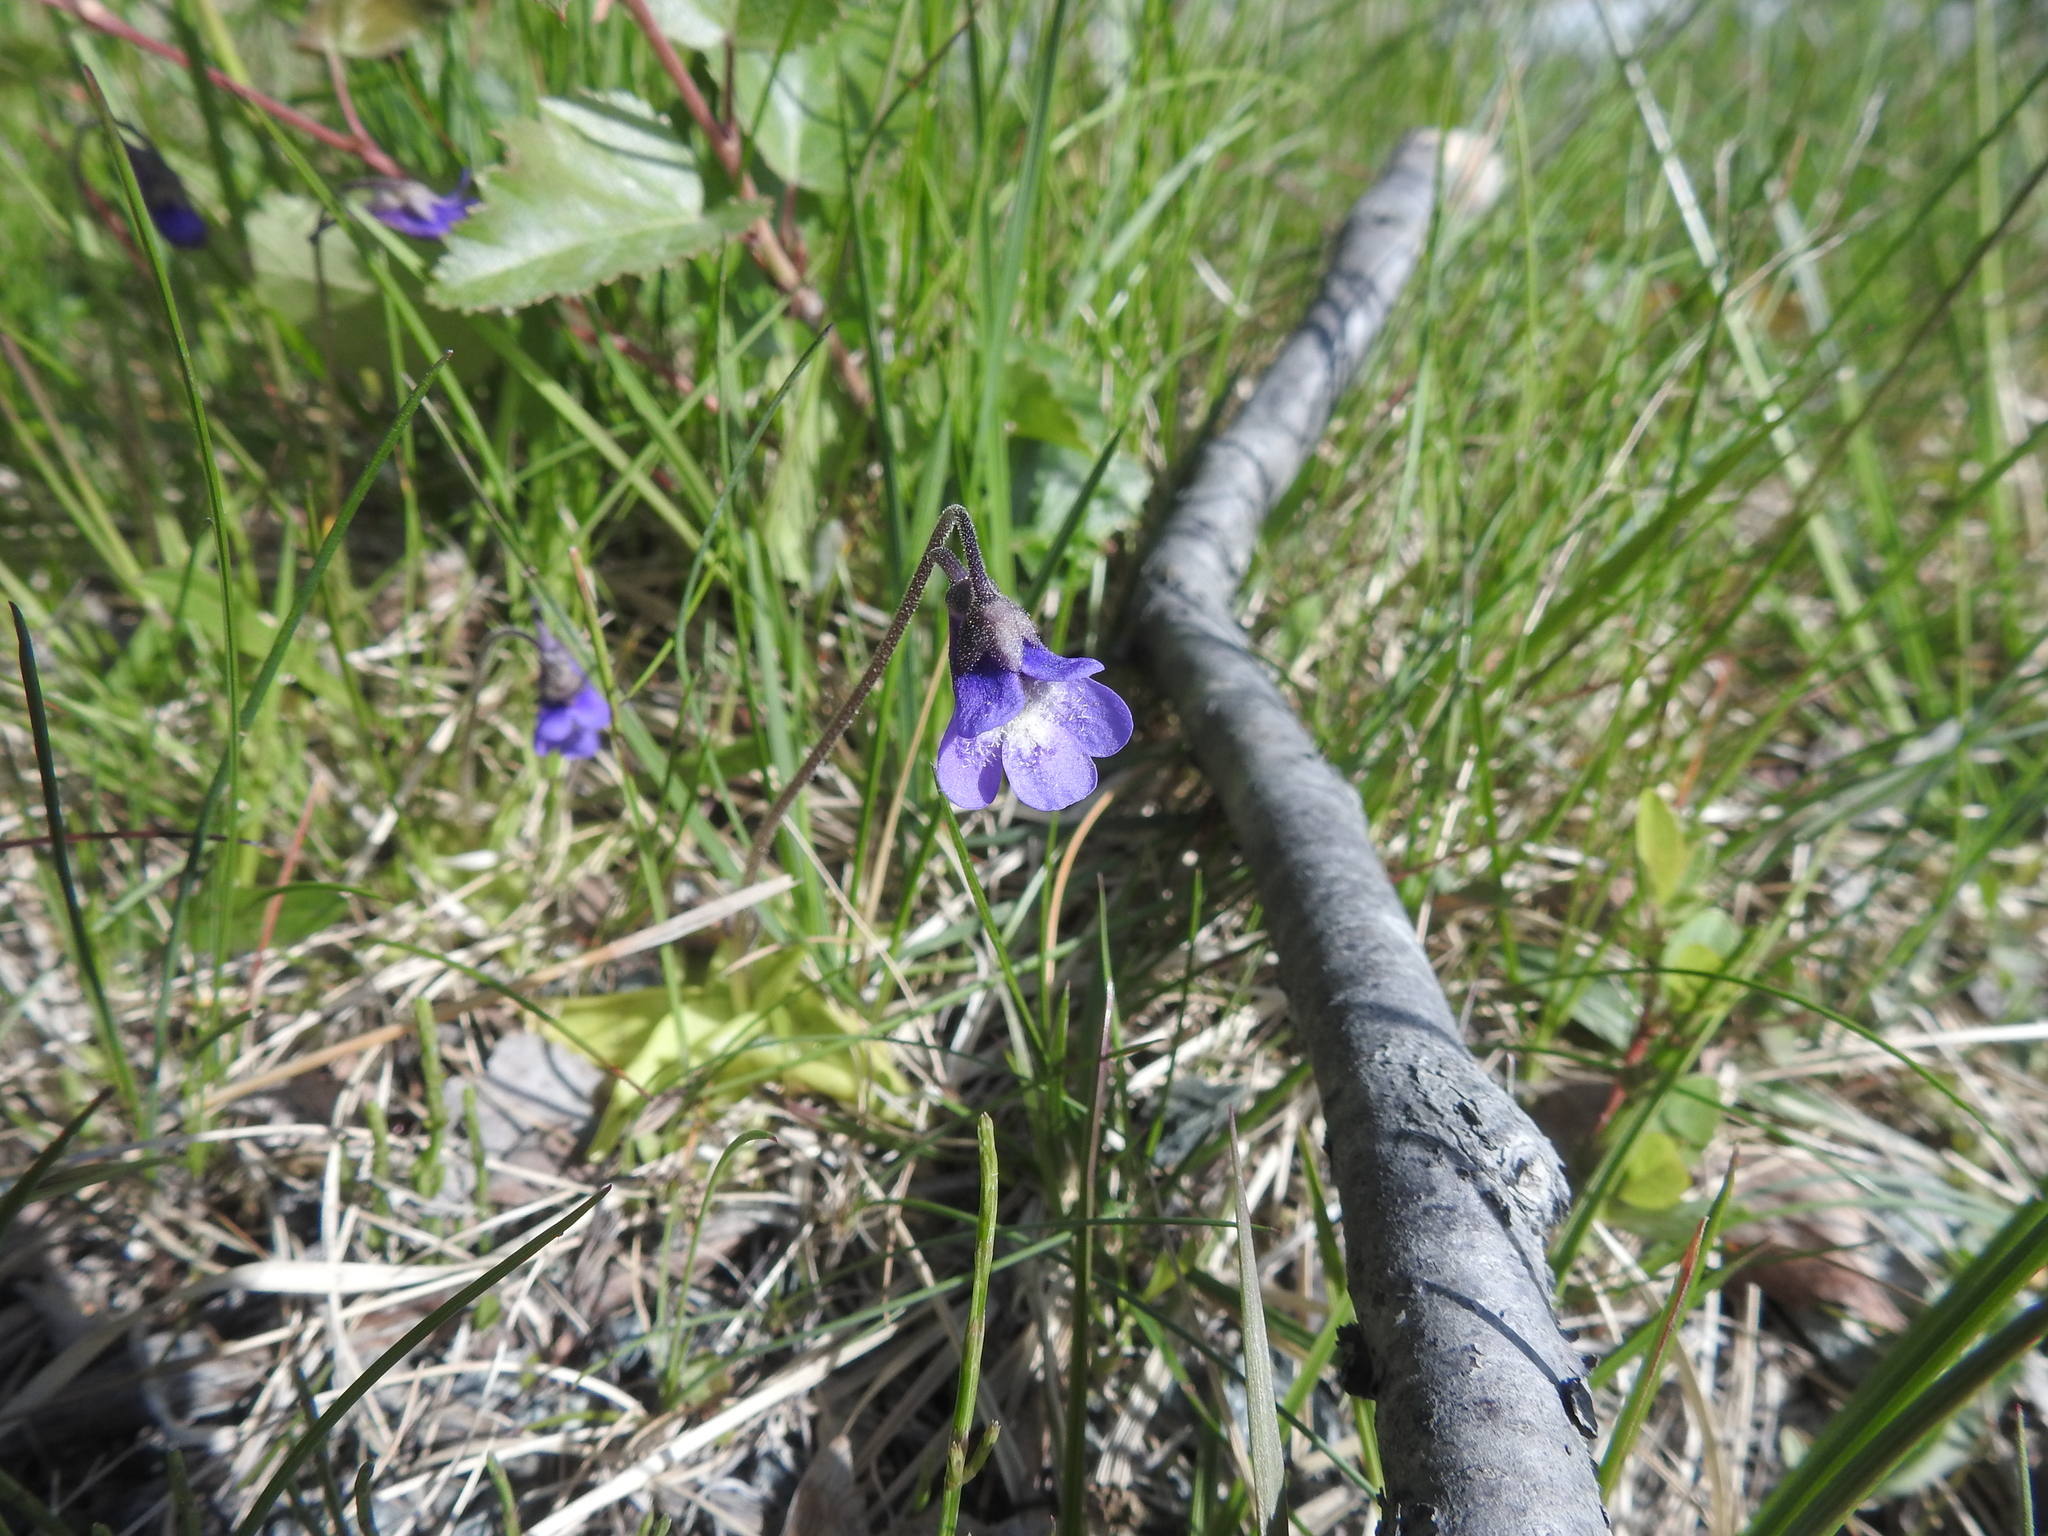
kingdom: Plantae
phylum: Tracheophyta
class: Magnoliopsida
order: Lamiales
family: Lentibulariaceae
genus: Pinguicula
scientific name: Pinguicula vulgaris
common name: Common butterwort
